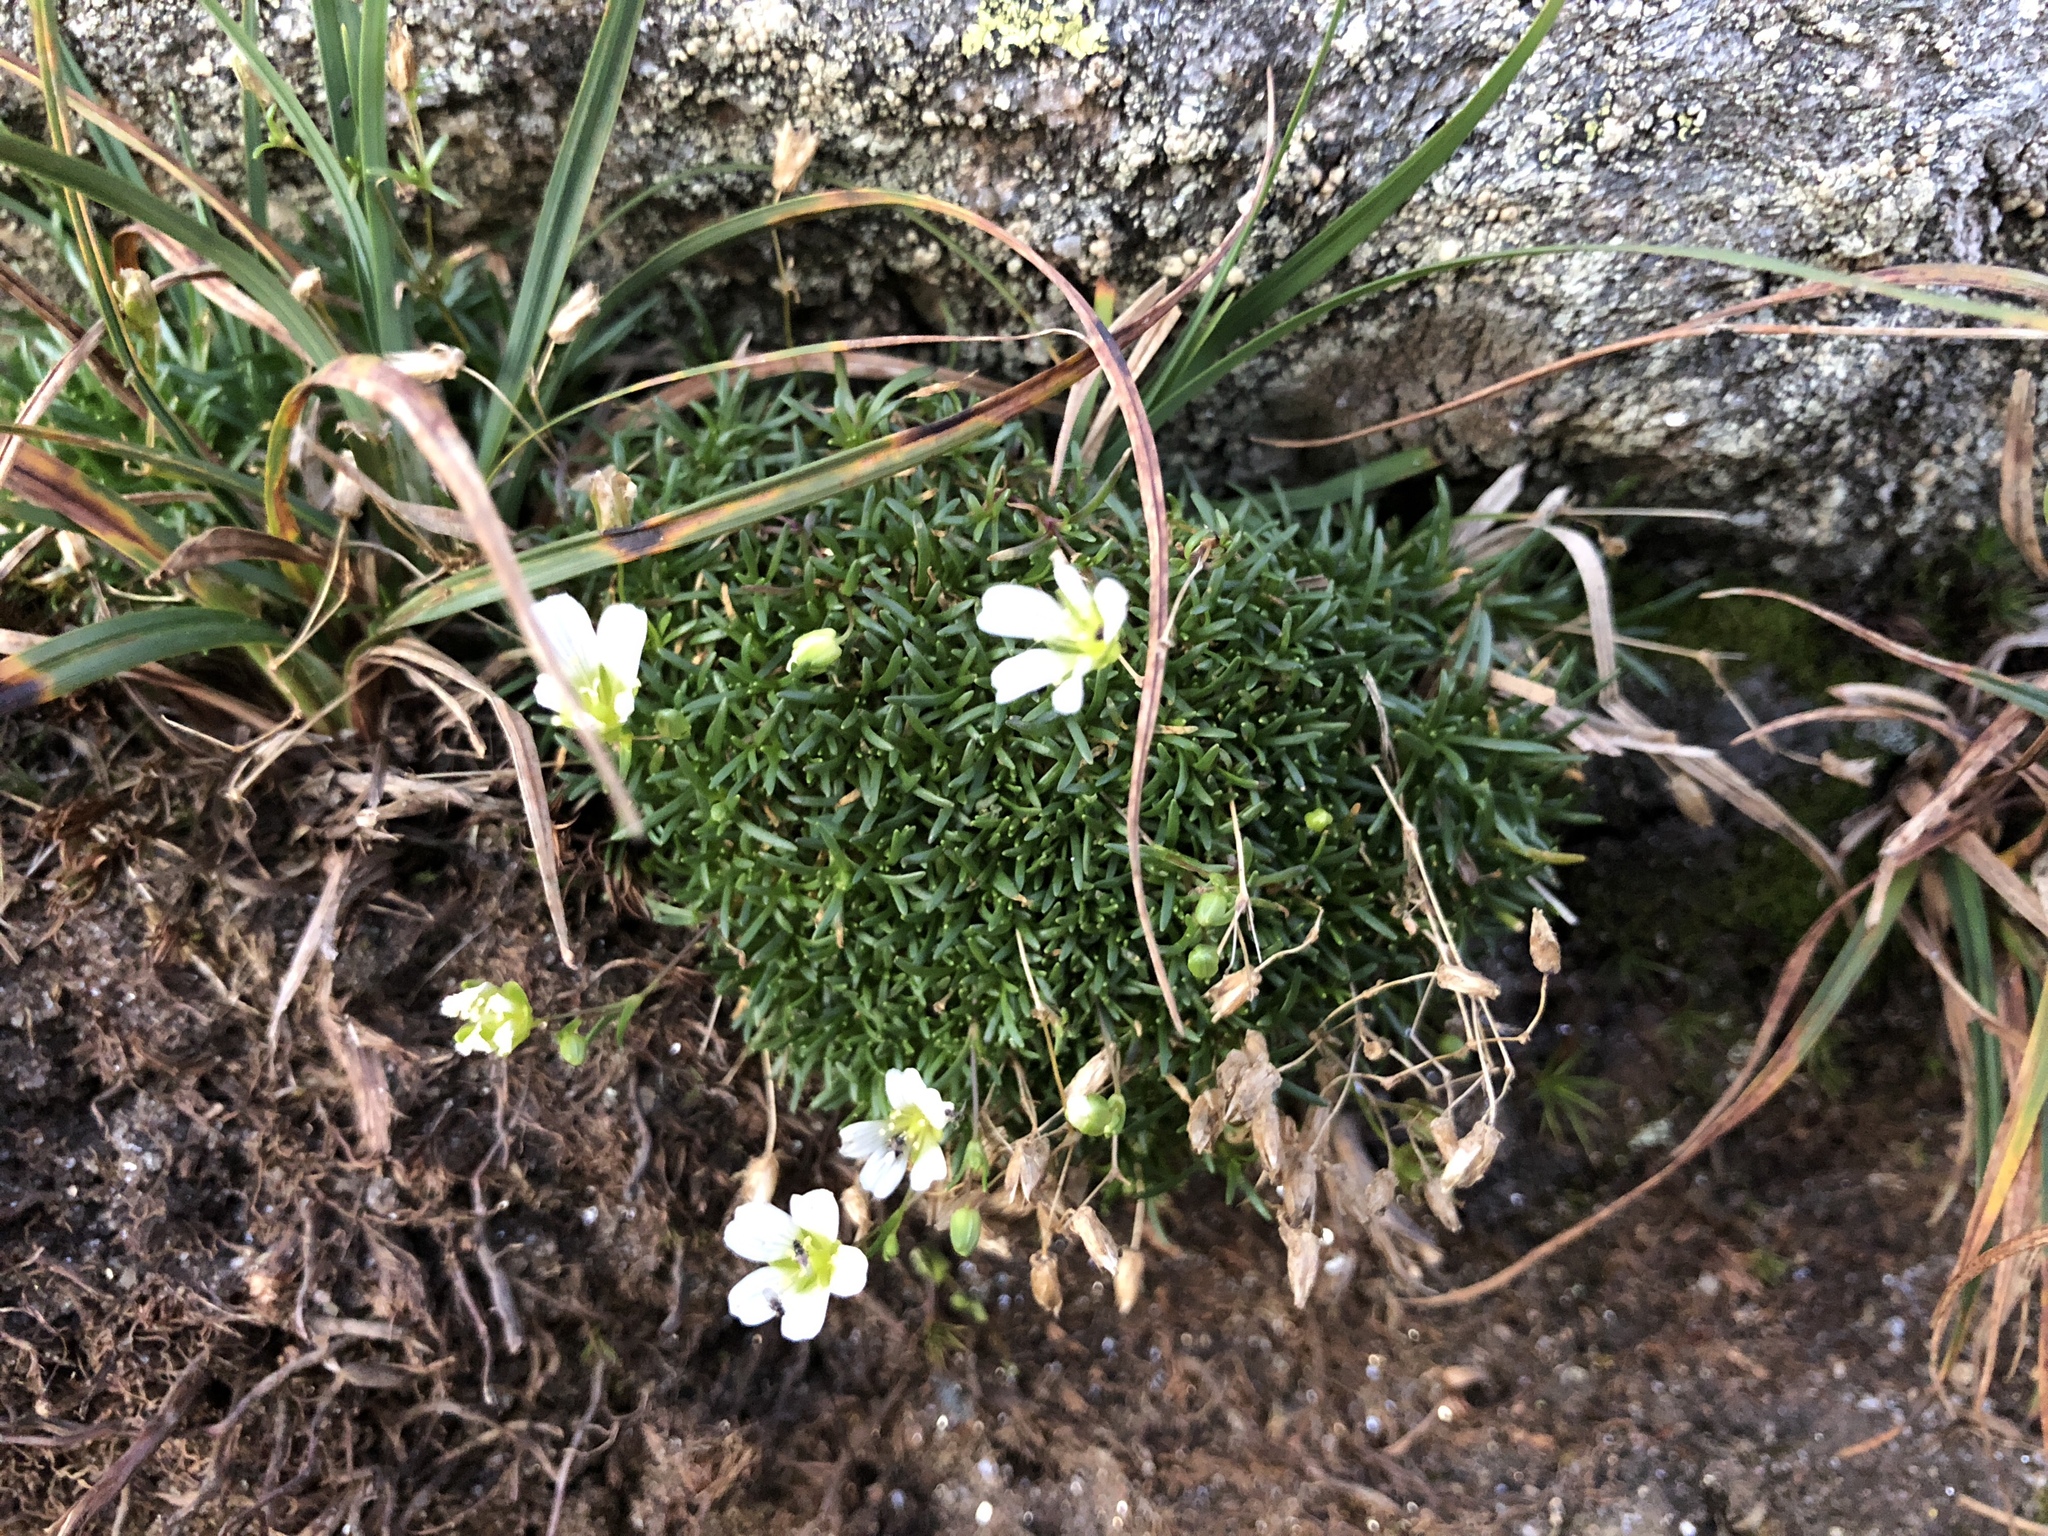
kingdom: Plantae
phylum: Tracheophyta
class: Magnoliopsida
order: Caryophyllales
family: Caryophyllaceae
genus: Geocarpon
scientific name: Geocarpon groenlandicum
